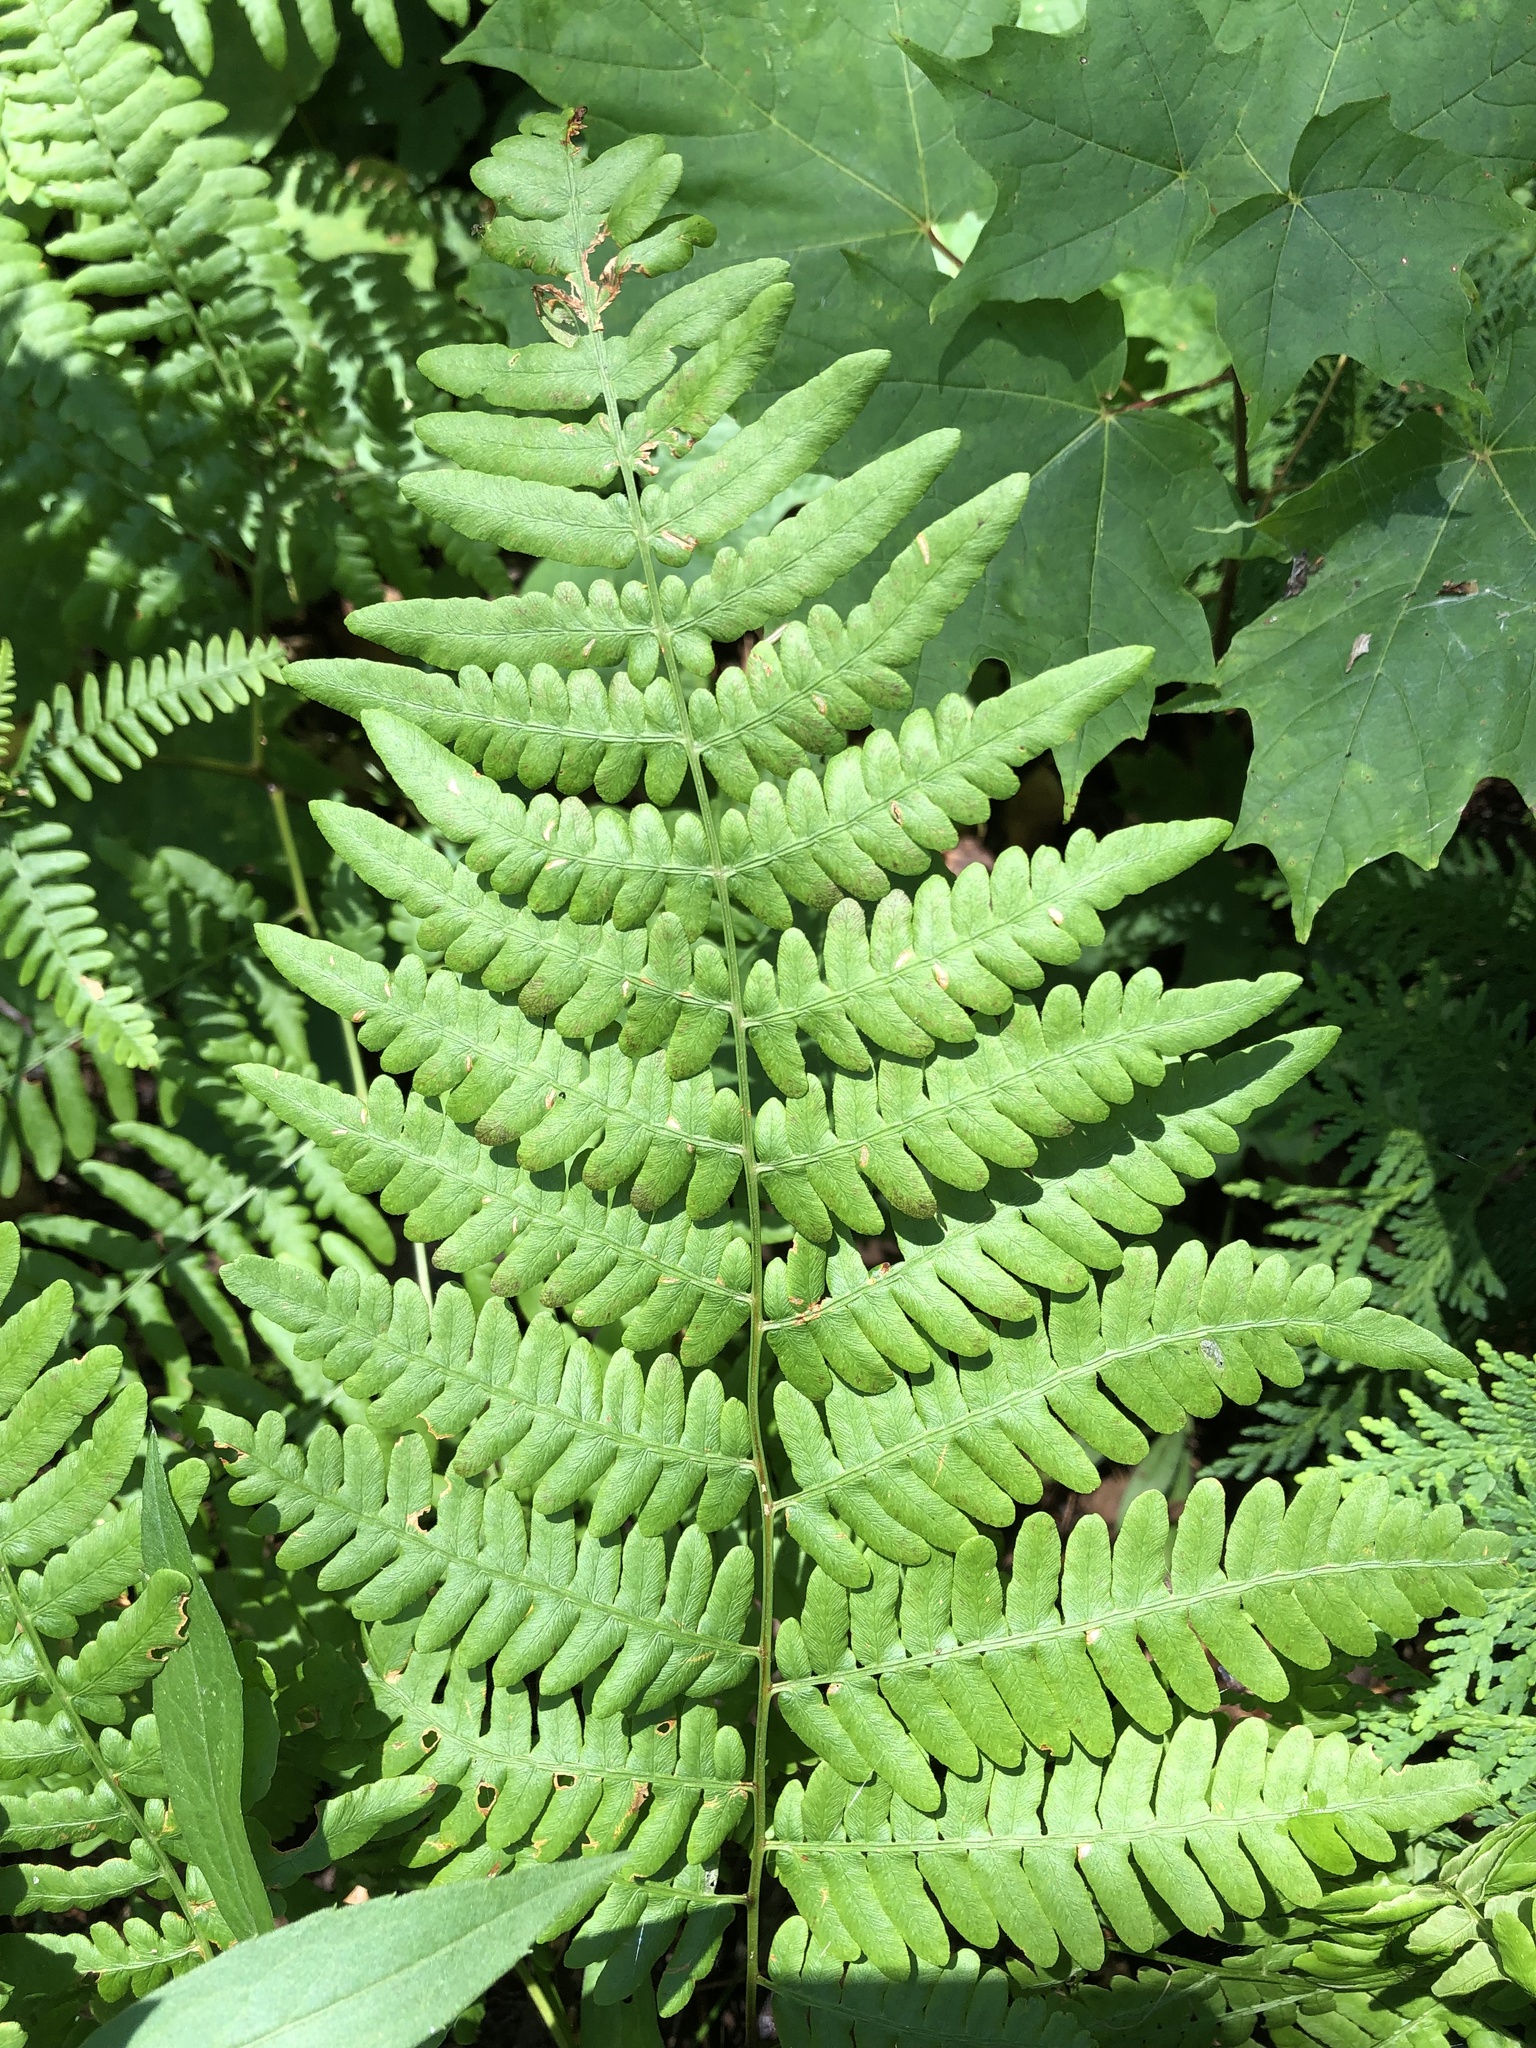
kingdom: Plantae
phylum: Tracheophyta
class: Polypodiopsida
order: Polypodiales
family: Dennstaedtiaceae
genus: Pteridium
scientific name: Pteridium aquilinum
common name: Bracken
